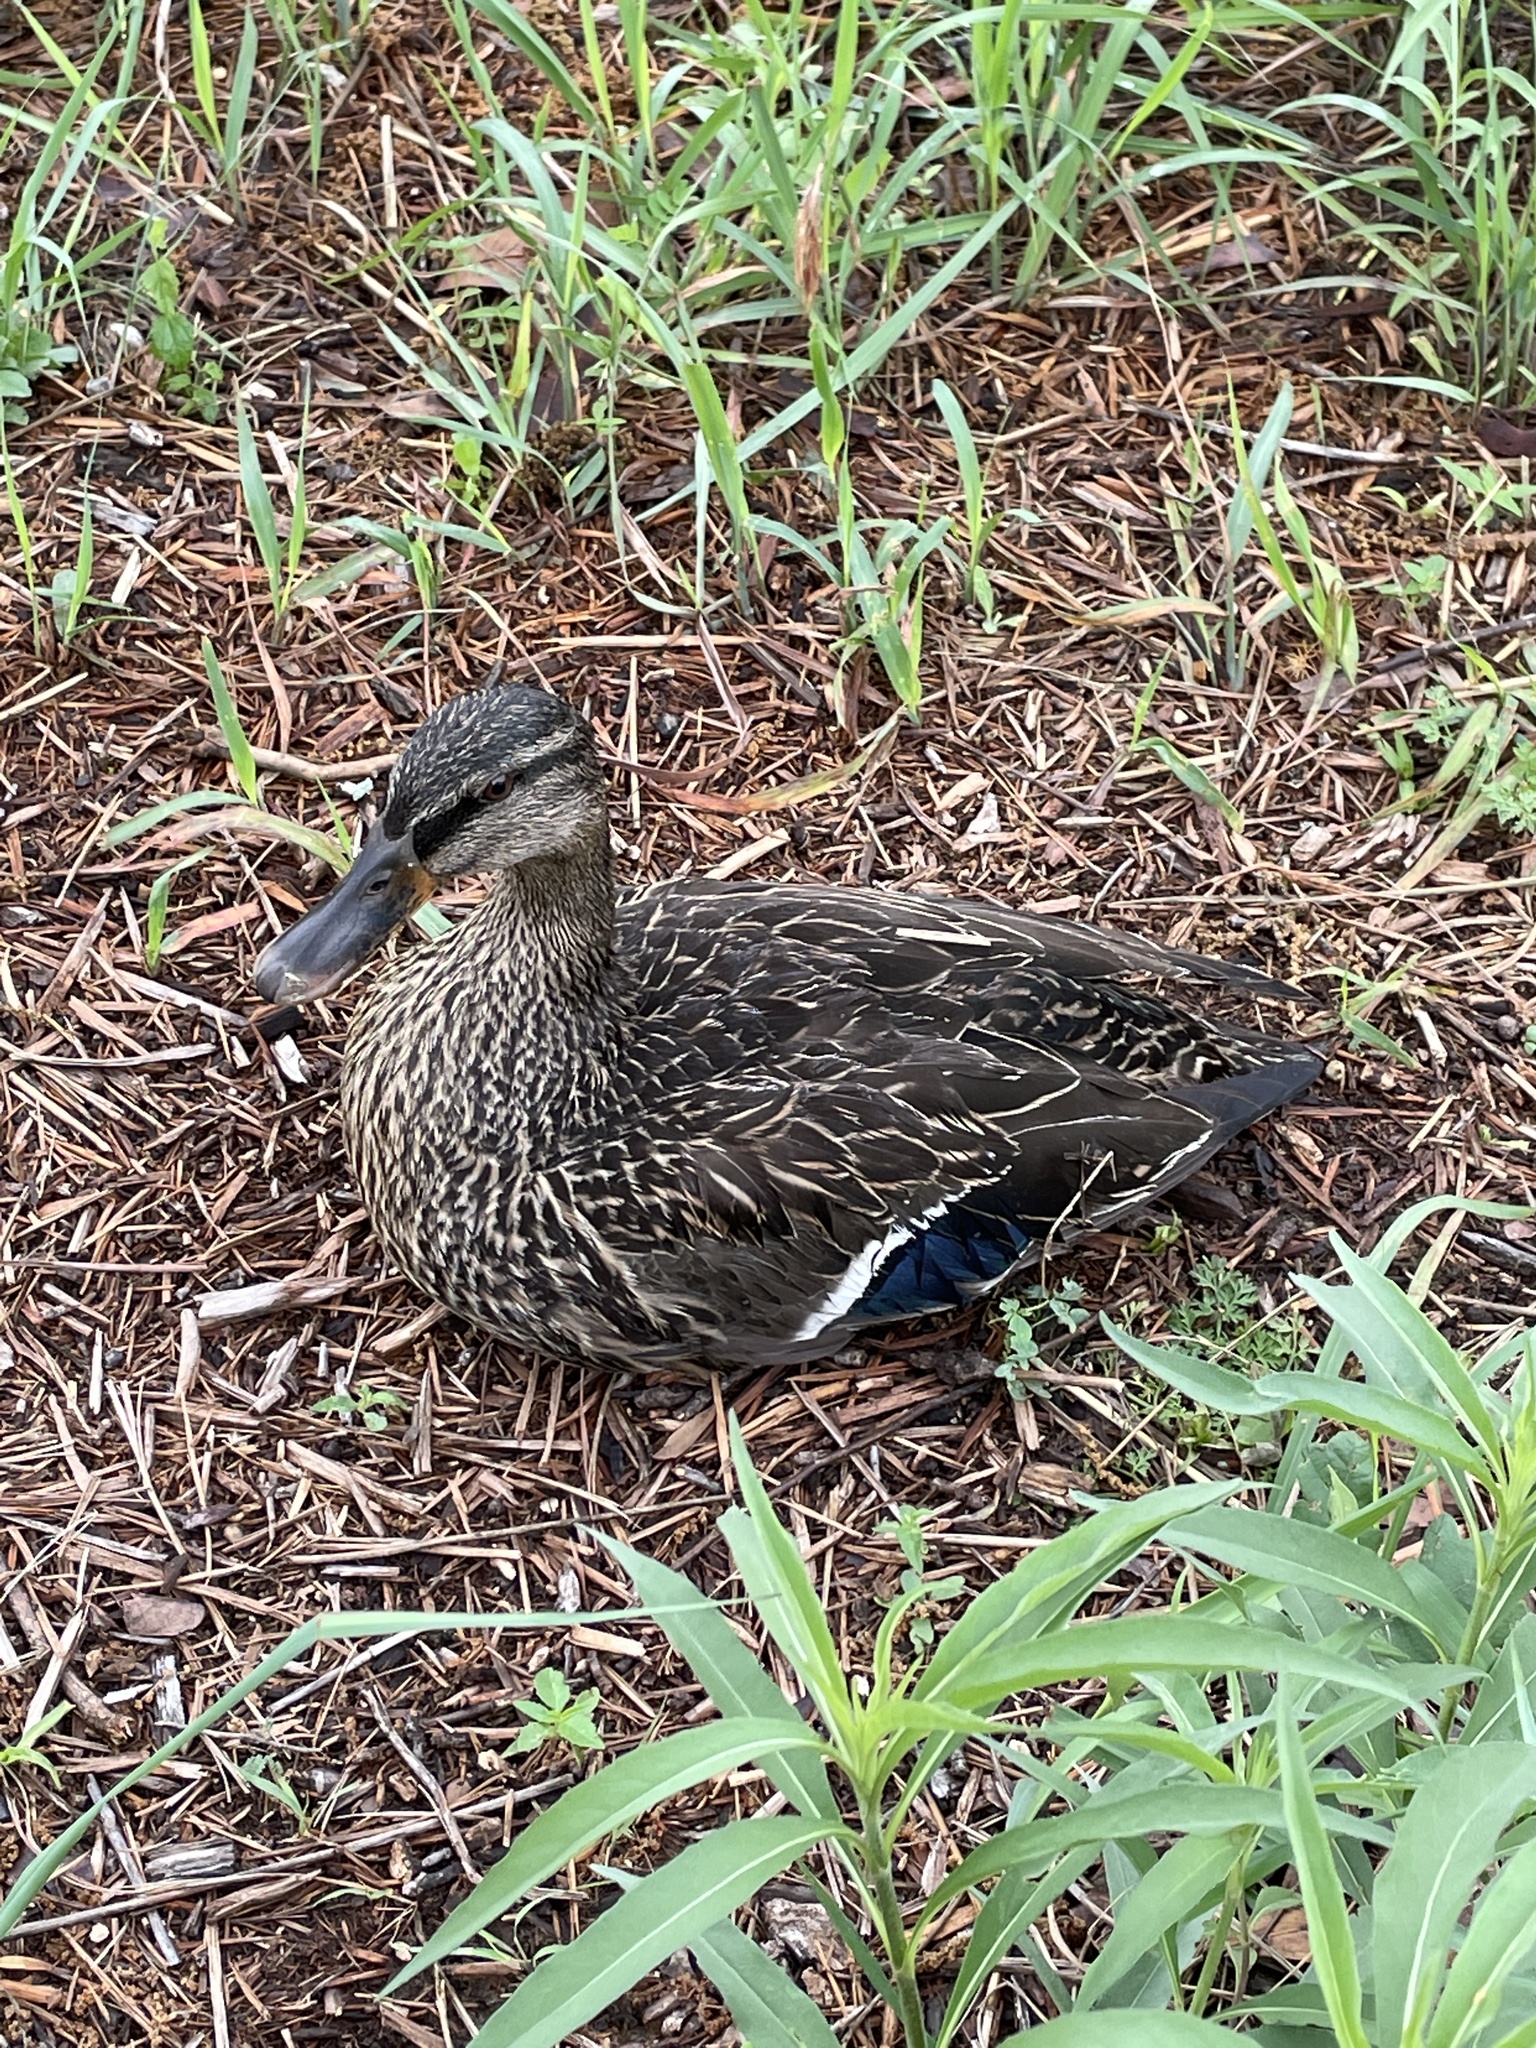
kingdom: Animalia
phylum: Chordata
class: Aves
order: Anseriformes
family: Anatidae
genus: Anas
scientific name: Anas platyrhynchos
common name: Mallard
